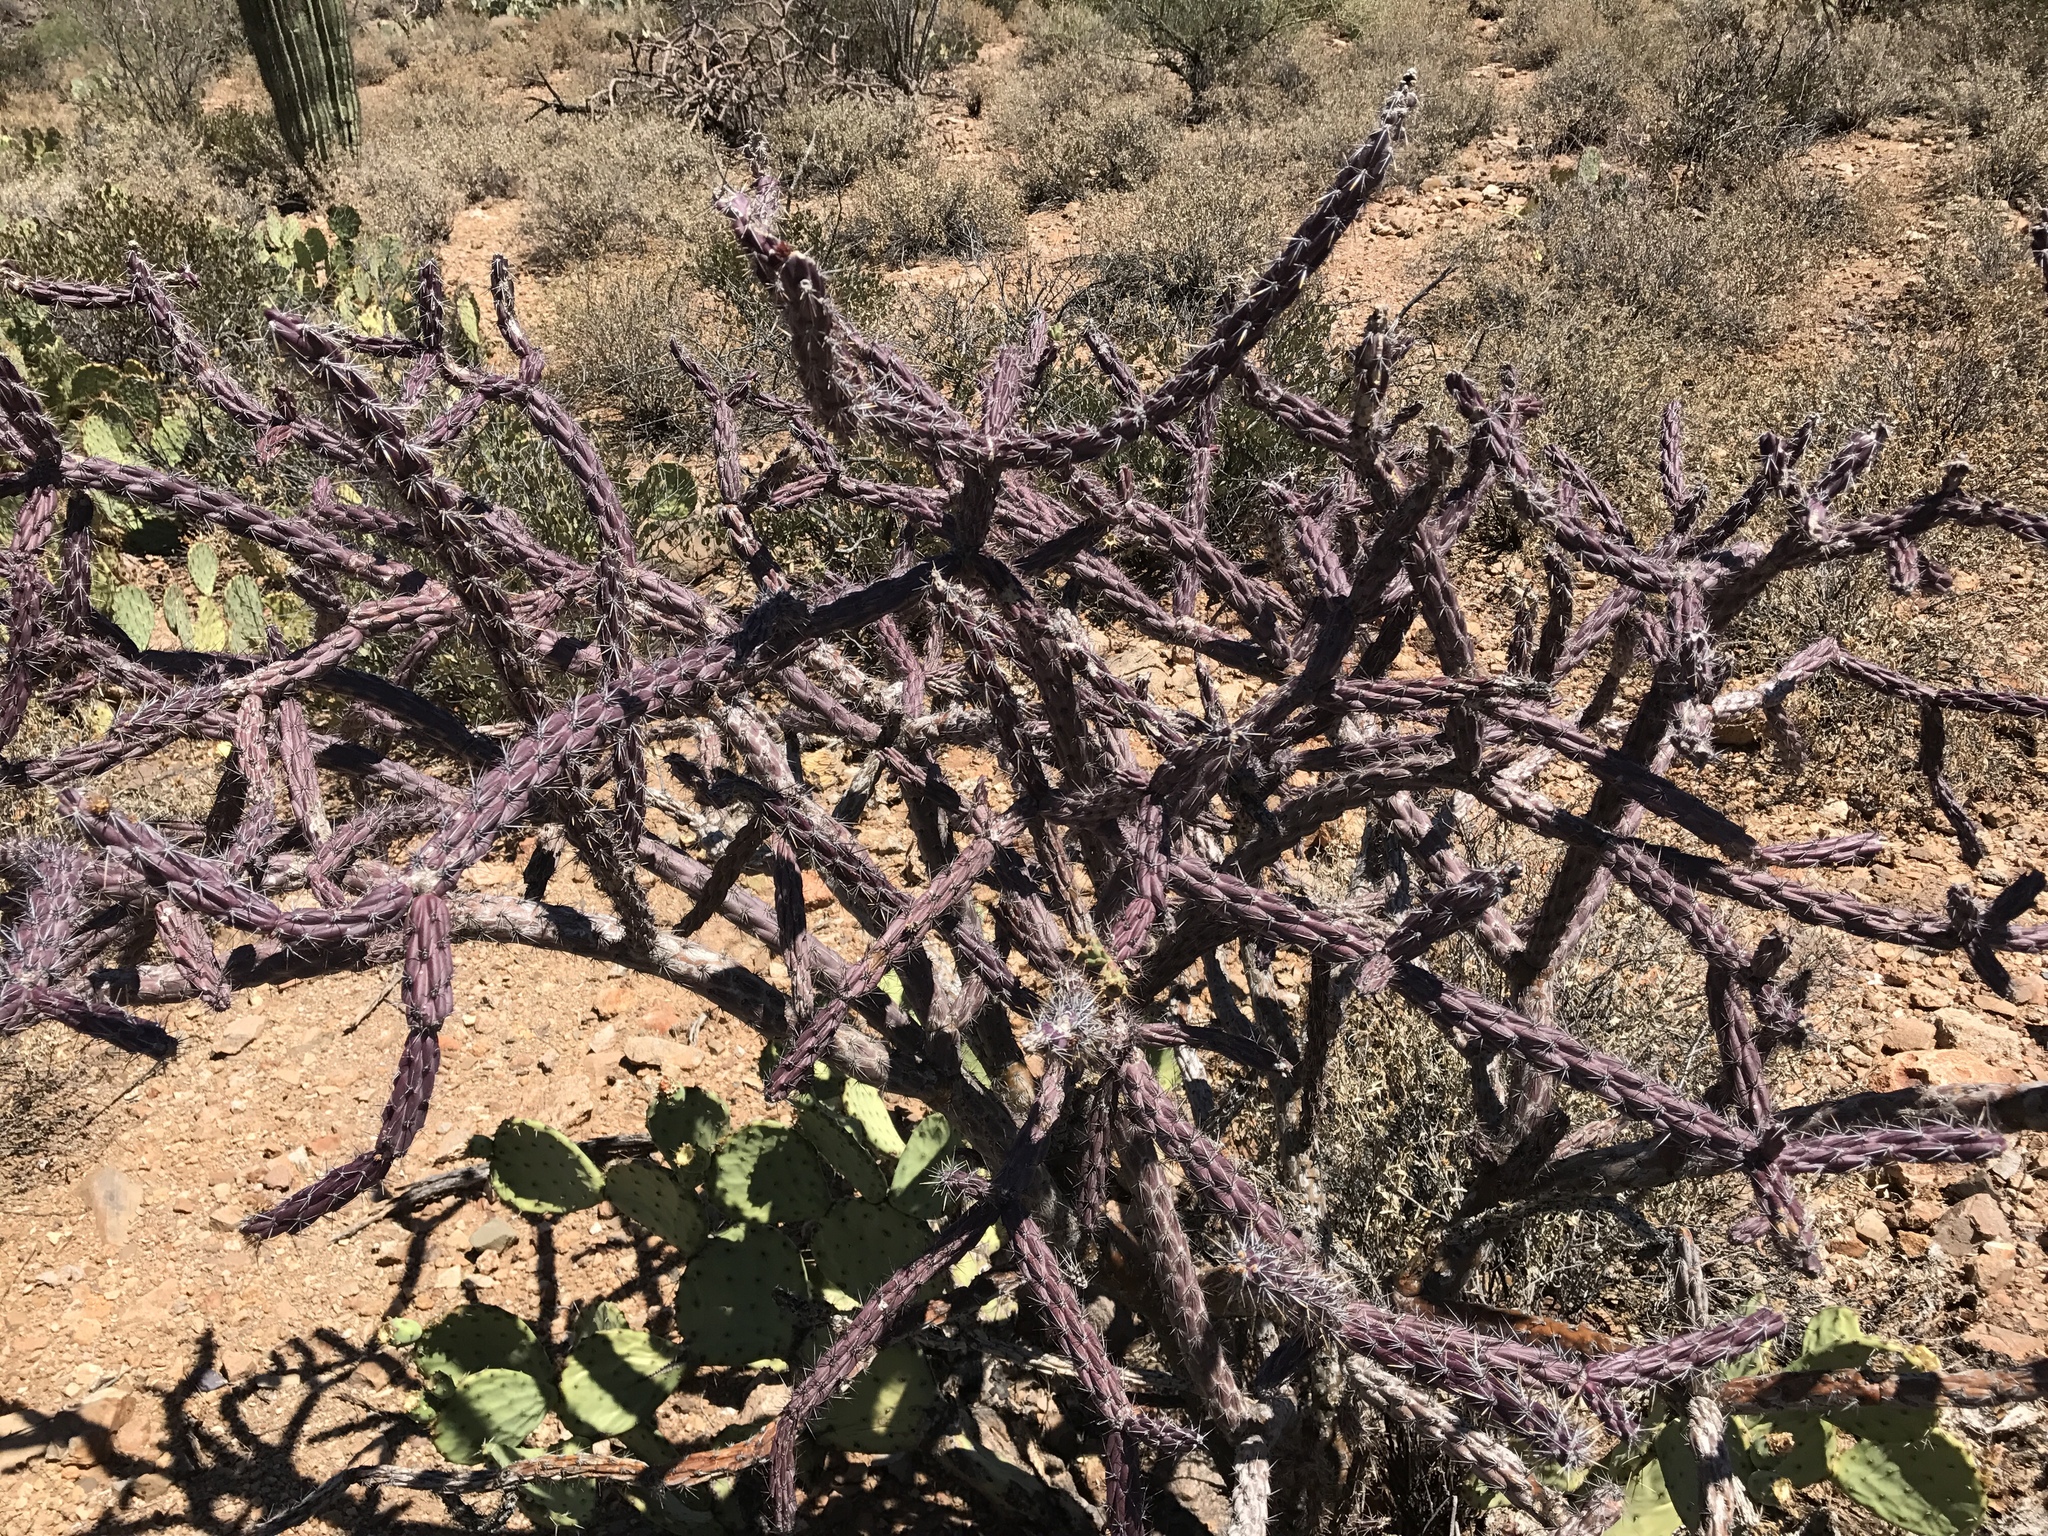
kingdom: Plantae
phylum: Tracheophyta
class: Magnoliopsida
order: Caryophyllales
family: Cactaceae
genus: Cylindropuntia
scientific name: Cylindropuntia thurberi
